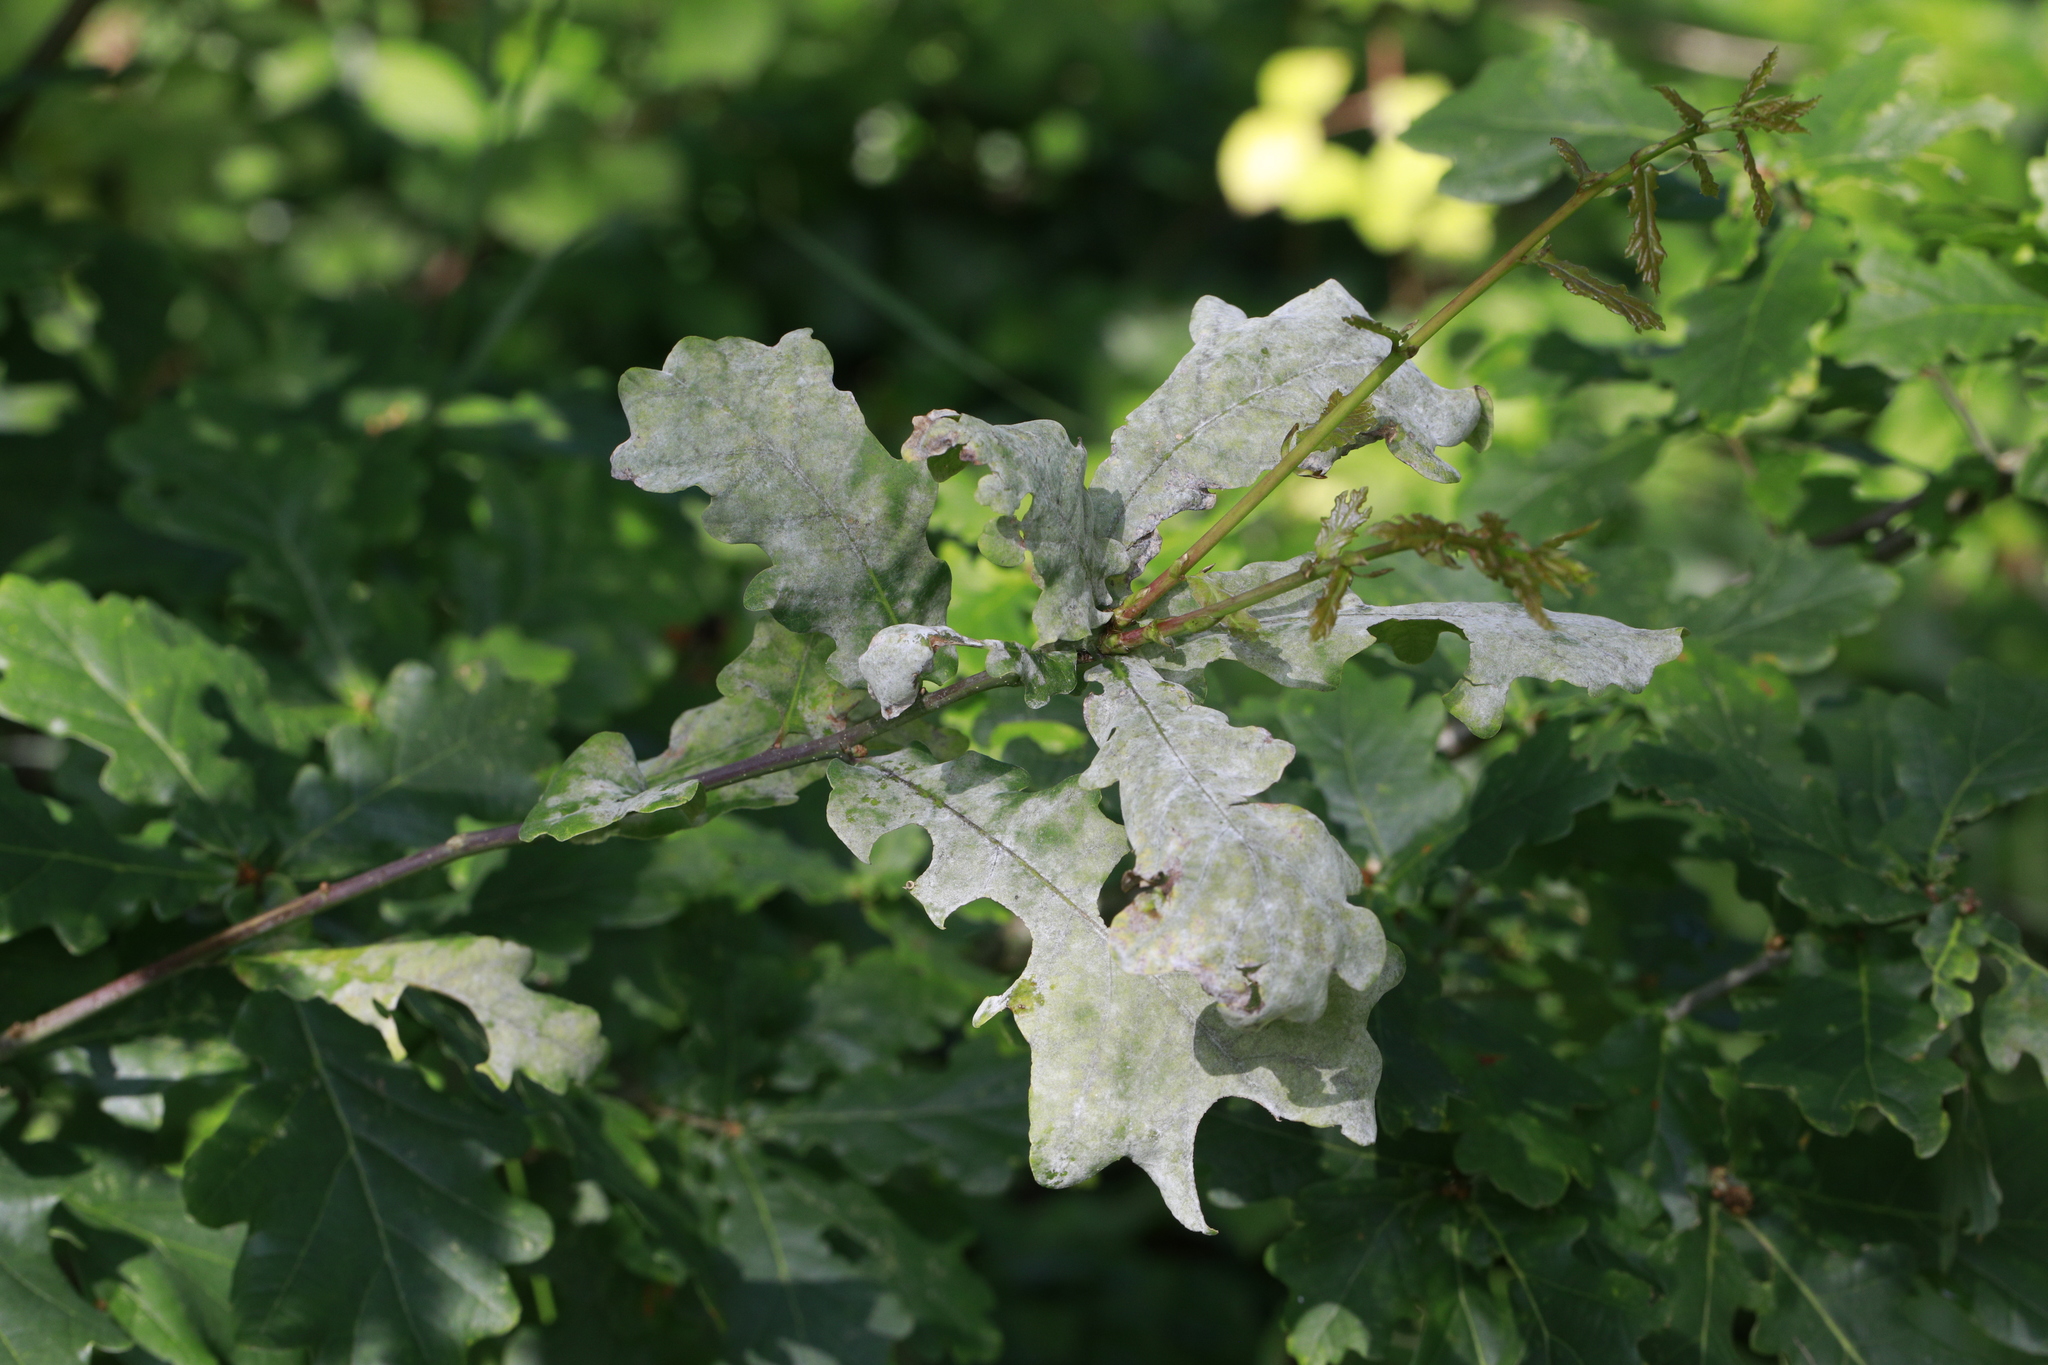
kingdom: Fungi
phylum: Ascomycota
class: Leotiomycetes
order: Helotiales
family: Erysiphaceae
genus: Erysiphe
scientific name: Erysiphe alphitoides
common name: Oak mildew
